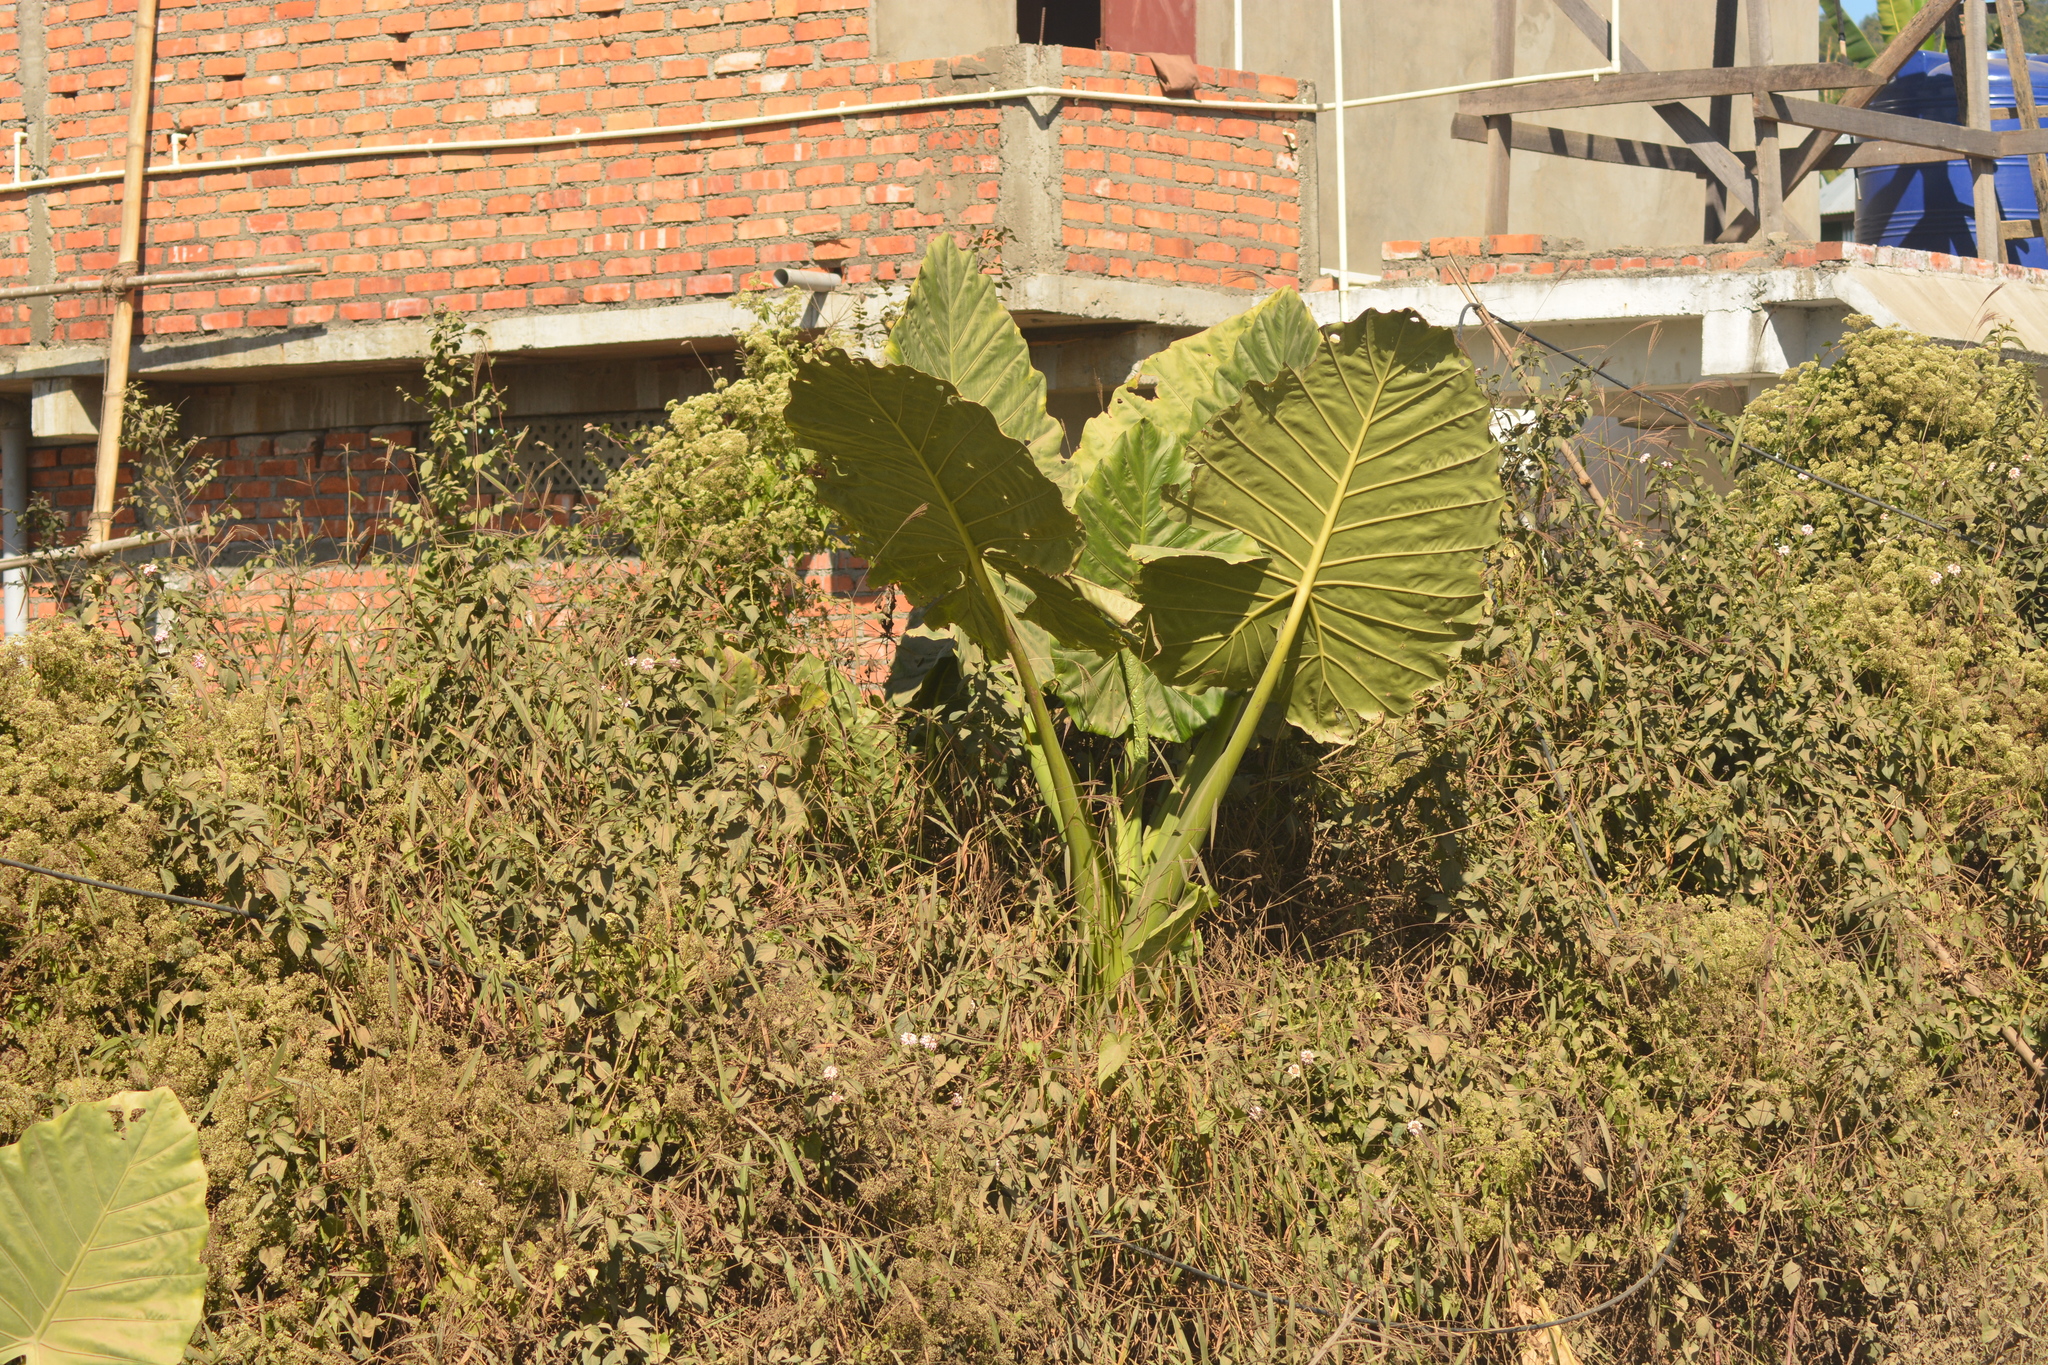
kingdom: Plantae
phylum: Tracheophyta
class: Liliopsida
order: Alismatales
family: Araceae
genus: Alocasia
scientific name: Alocasia macrorrhizos
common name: Giant taro
